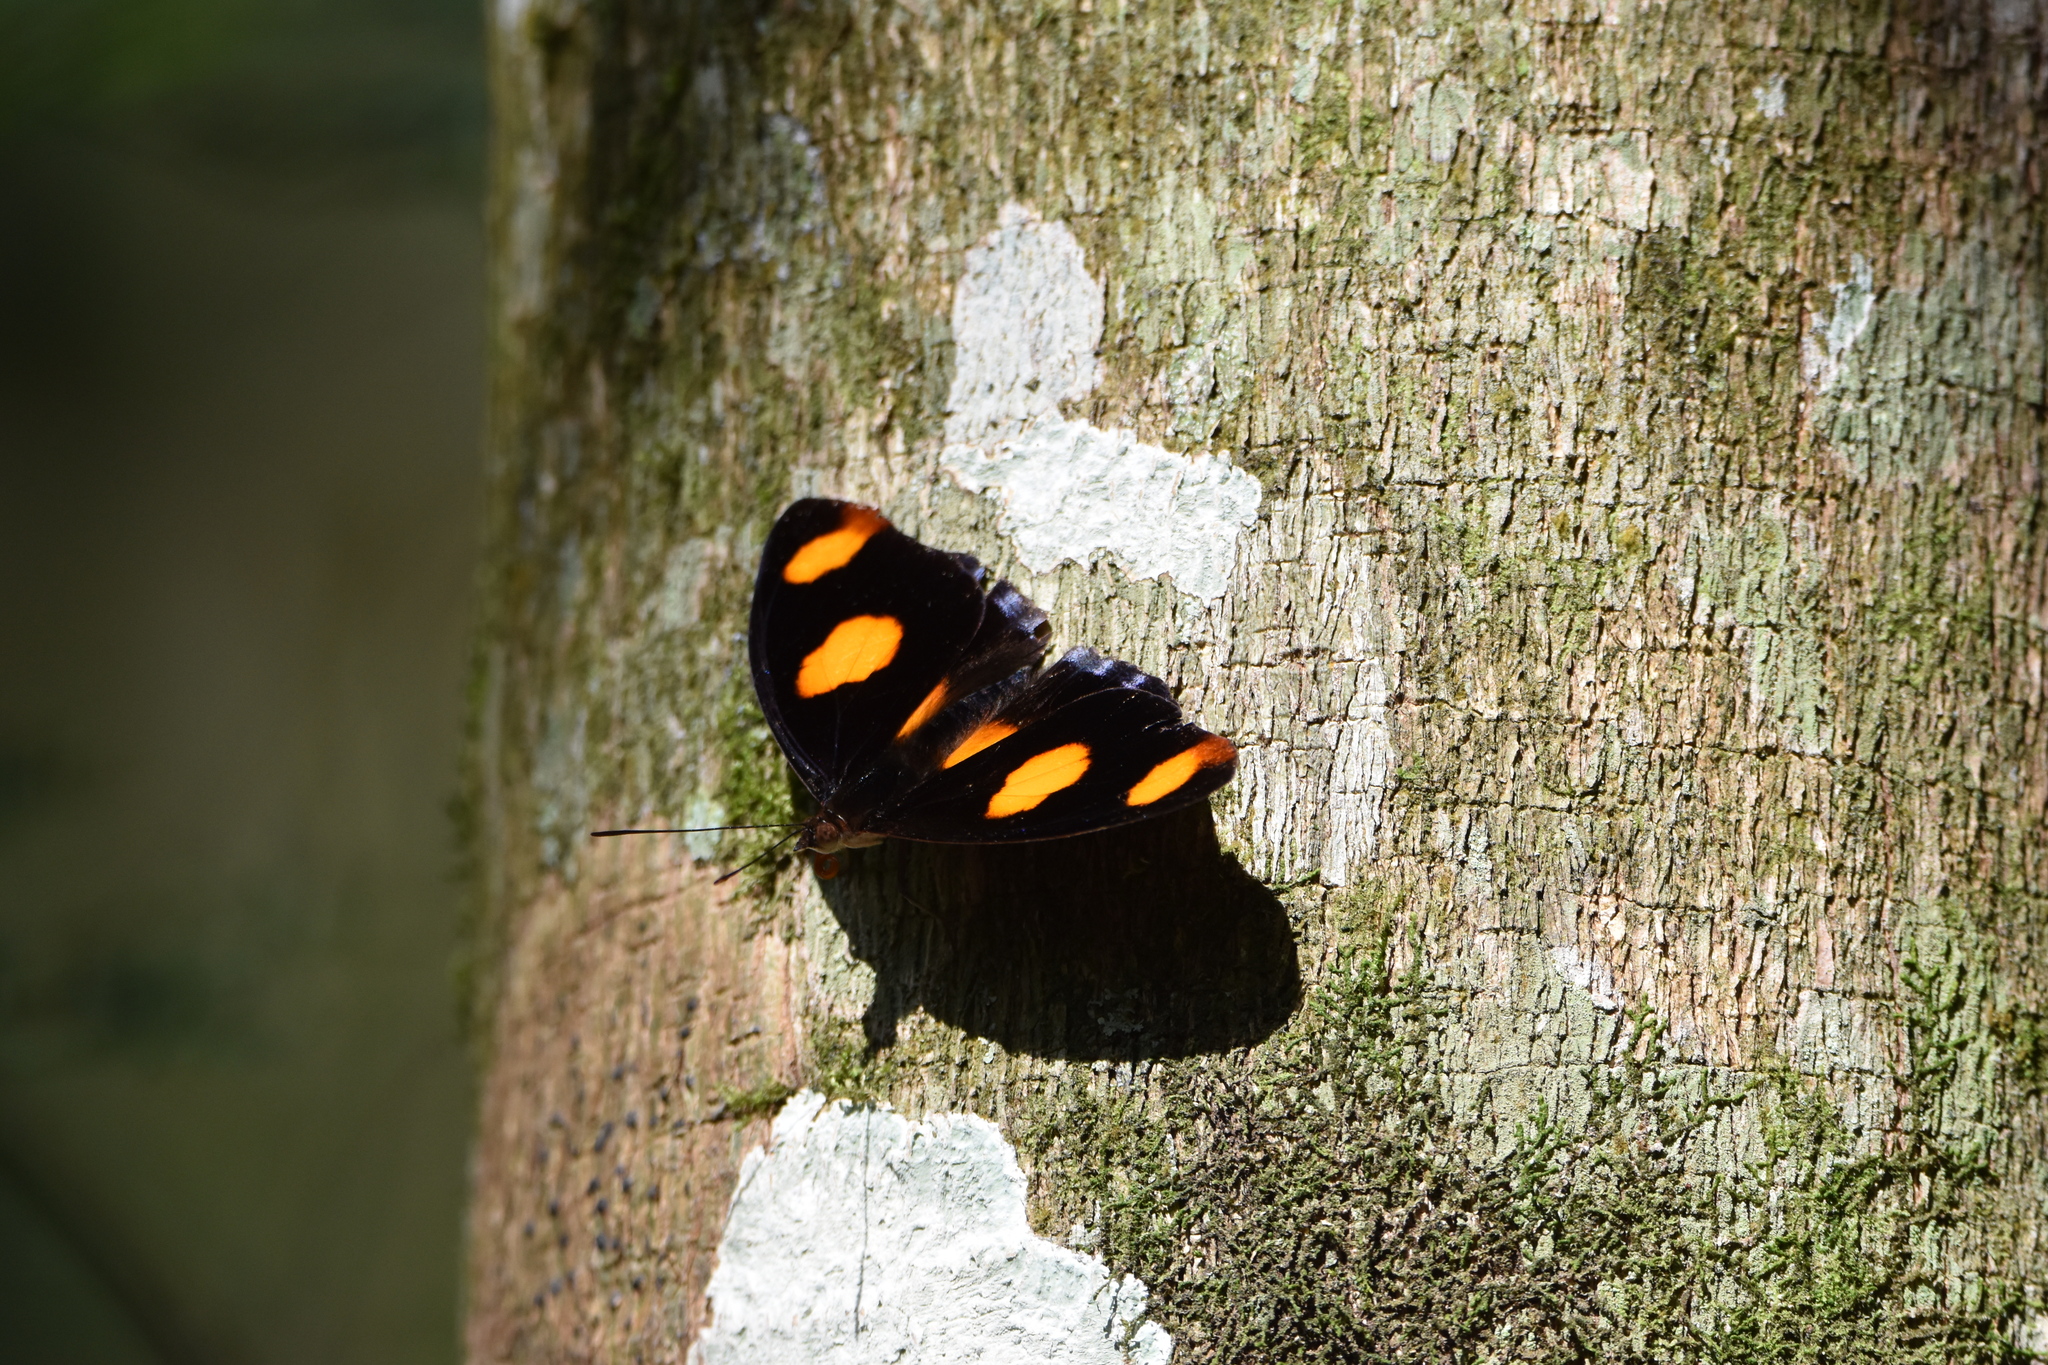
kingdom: Animalia
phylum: Arthropoda
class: Insecta
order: Lepidoptera
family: Nymphalidae
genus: Catonephele
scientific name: Catonephele numilia
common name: Blue-frosted banner
